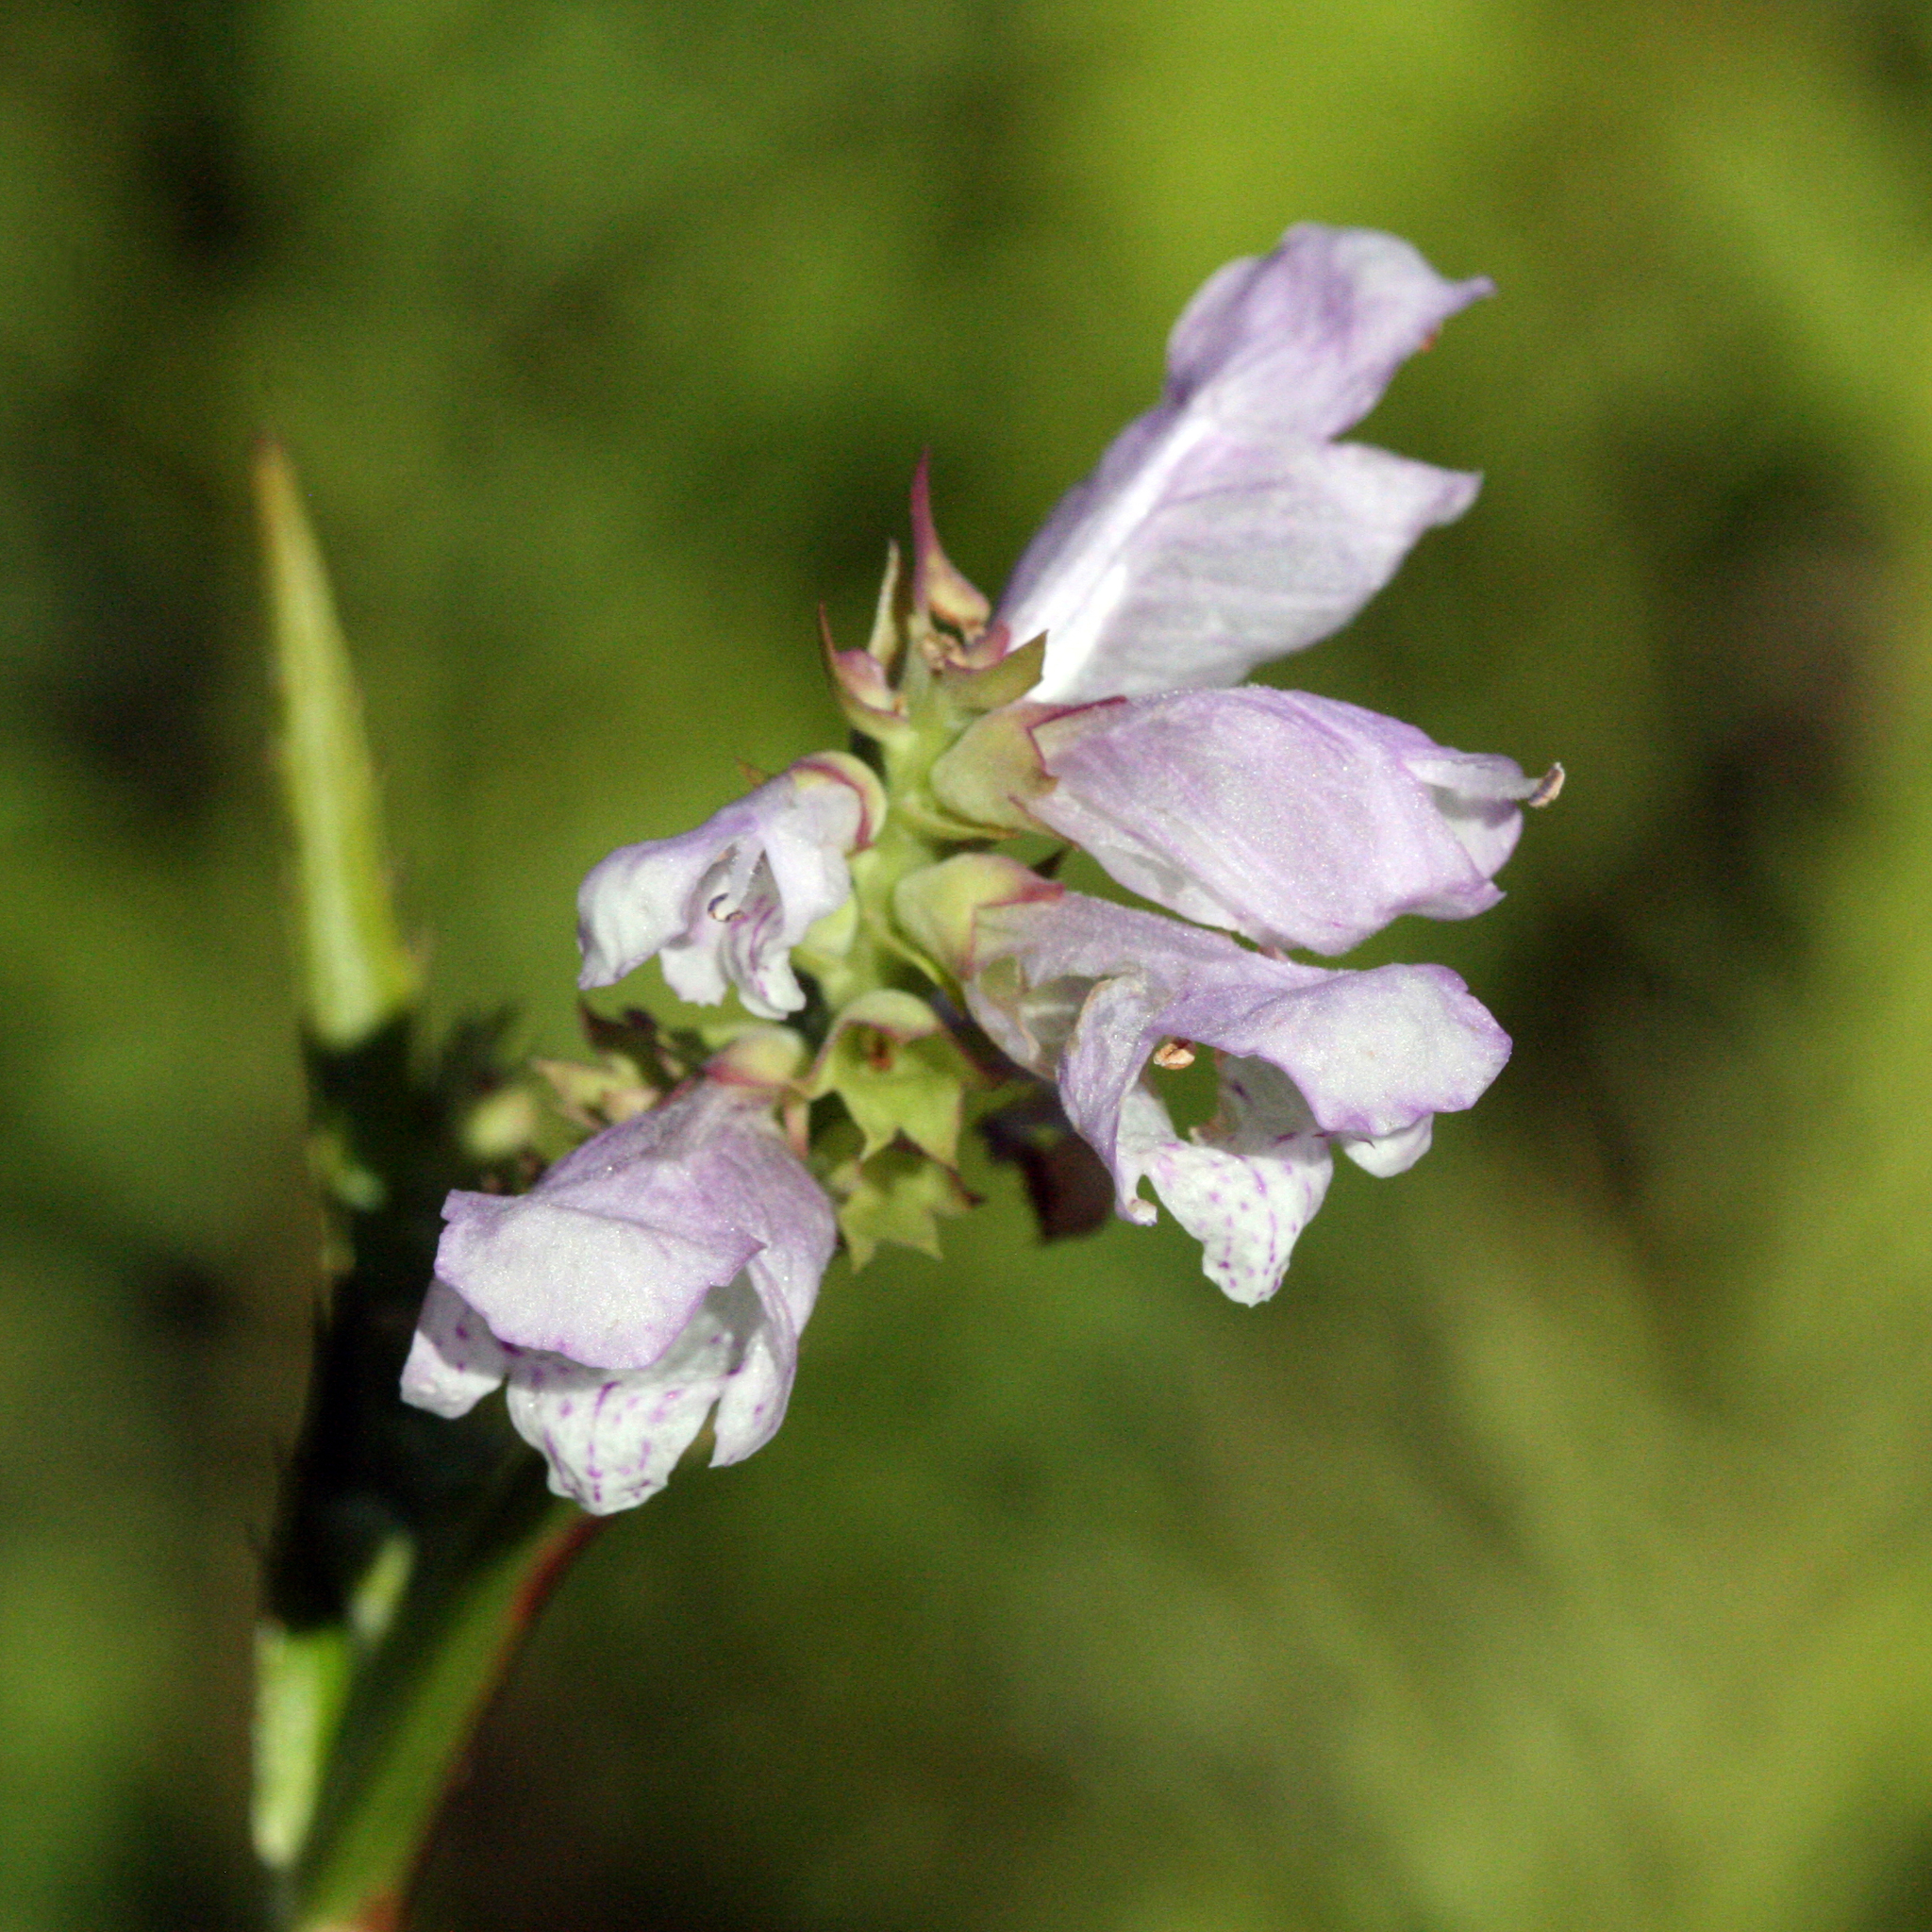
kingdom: Plantae
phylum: Tracheophyta
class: Magnoliopsida
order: Lamiales
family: Lamiaceae
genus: Physostegia
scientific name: Physostegia virginiana
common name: Obedient-plant
